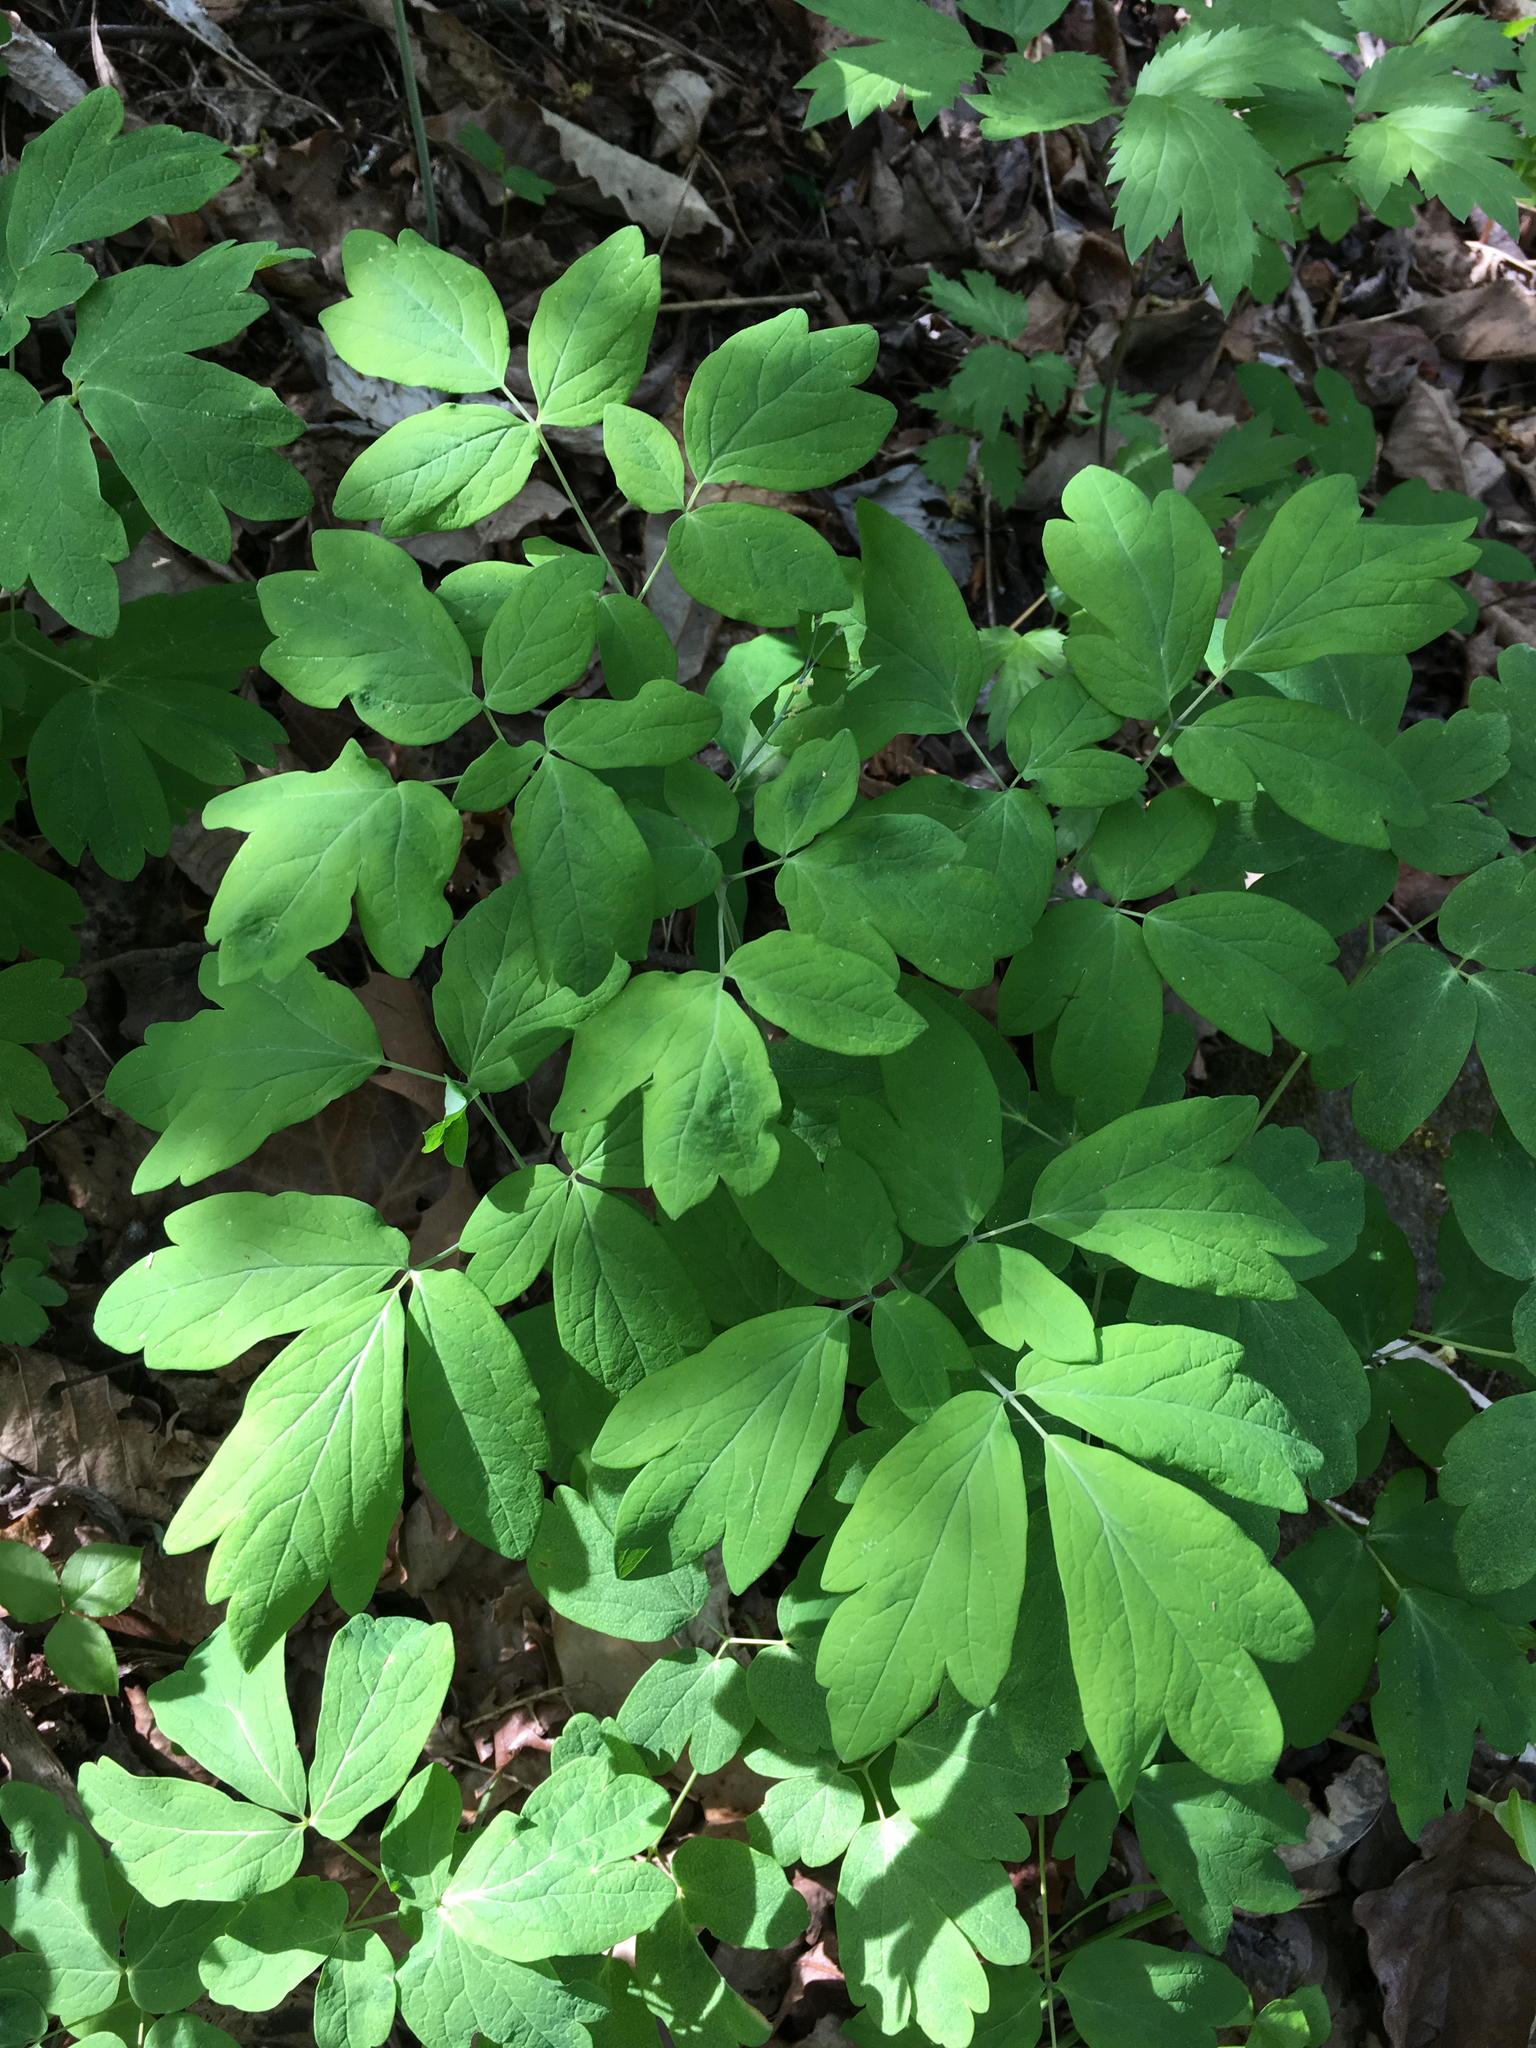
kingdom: Plantae
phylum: Tracheophyta
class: Magnoliopsida
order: Ranunculales
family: Berberidaceae
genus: Caulophyllum
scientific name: Caulophyllum thalictroides
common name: Blue cohosh
